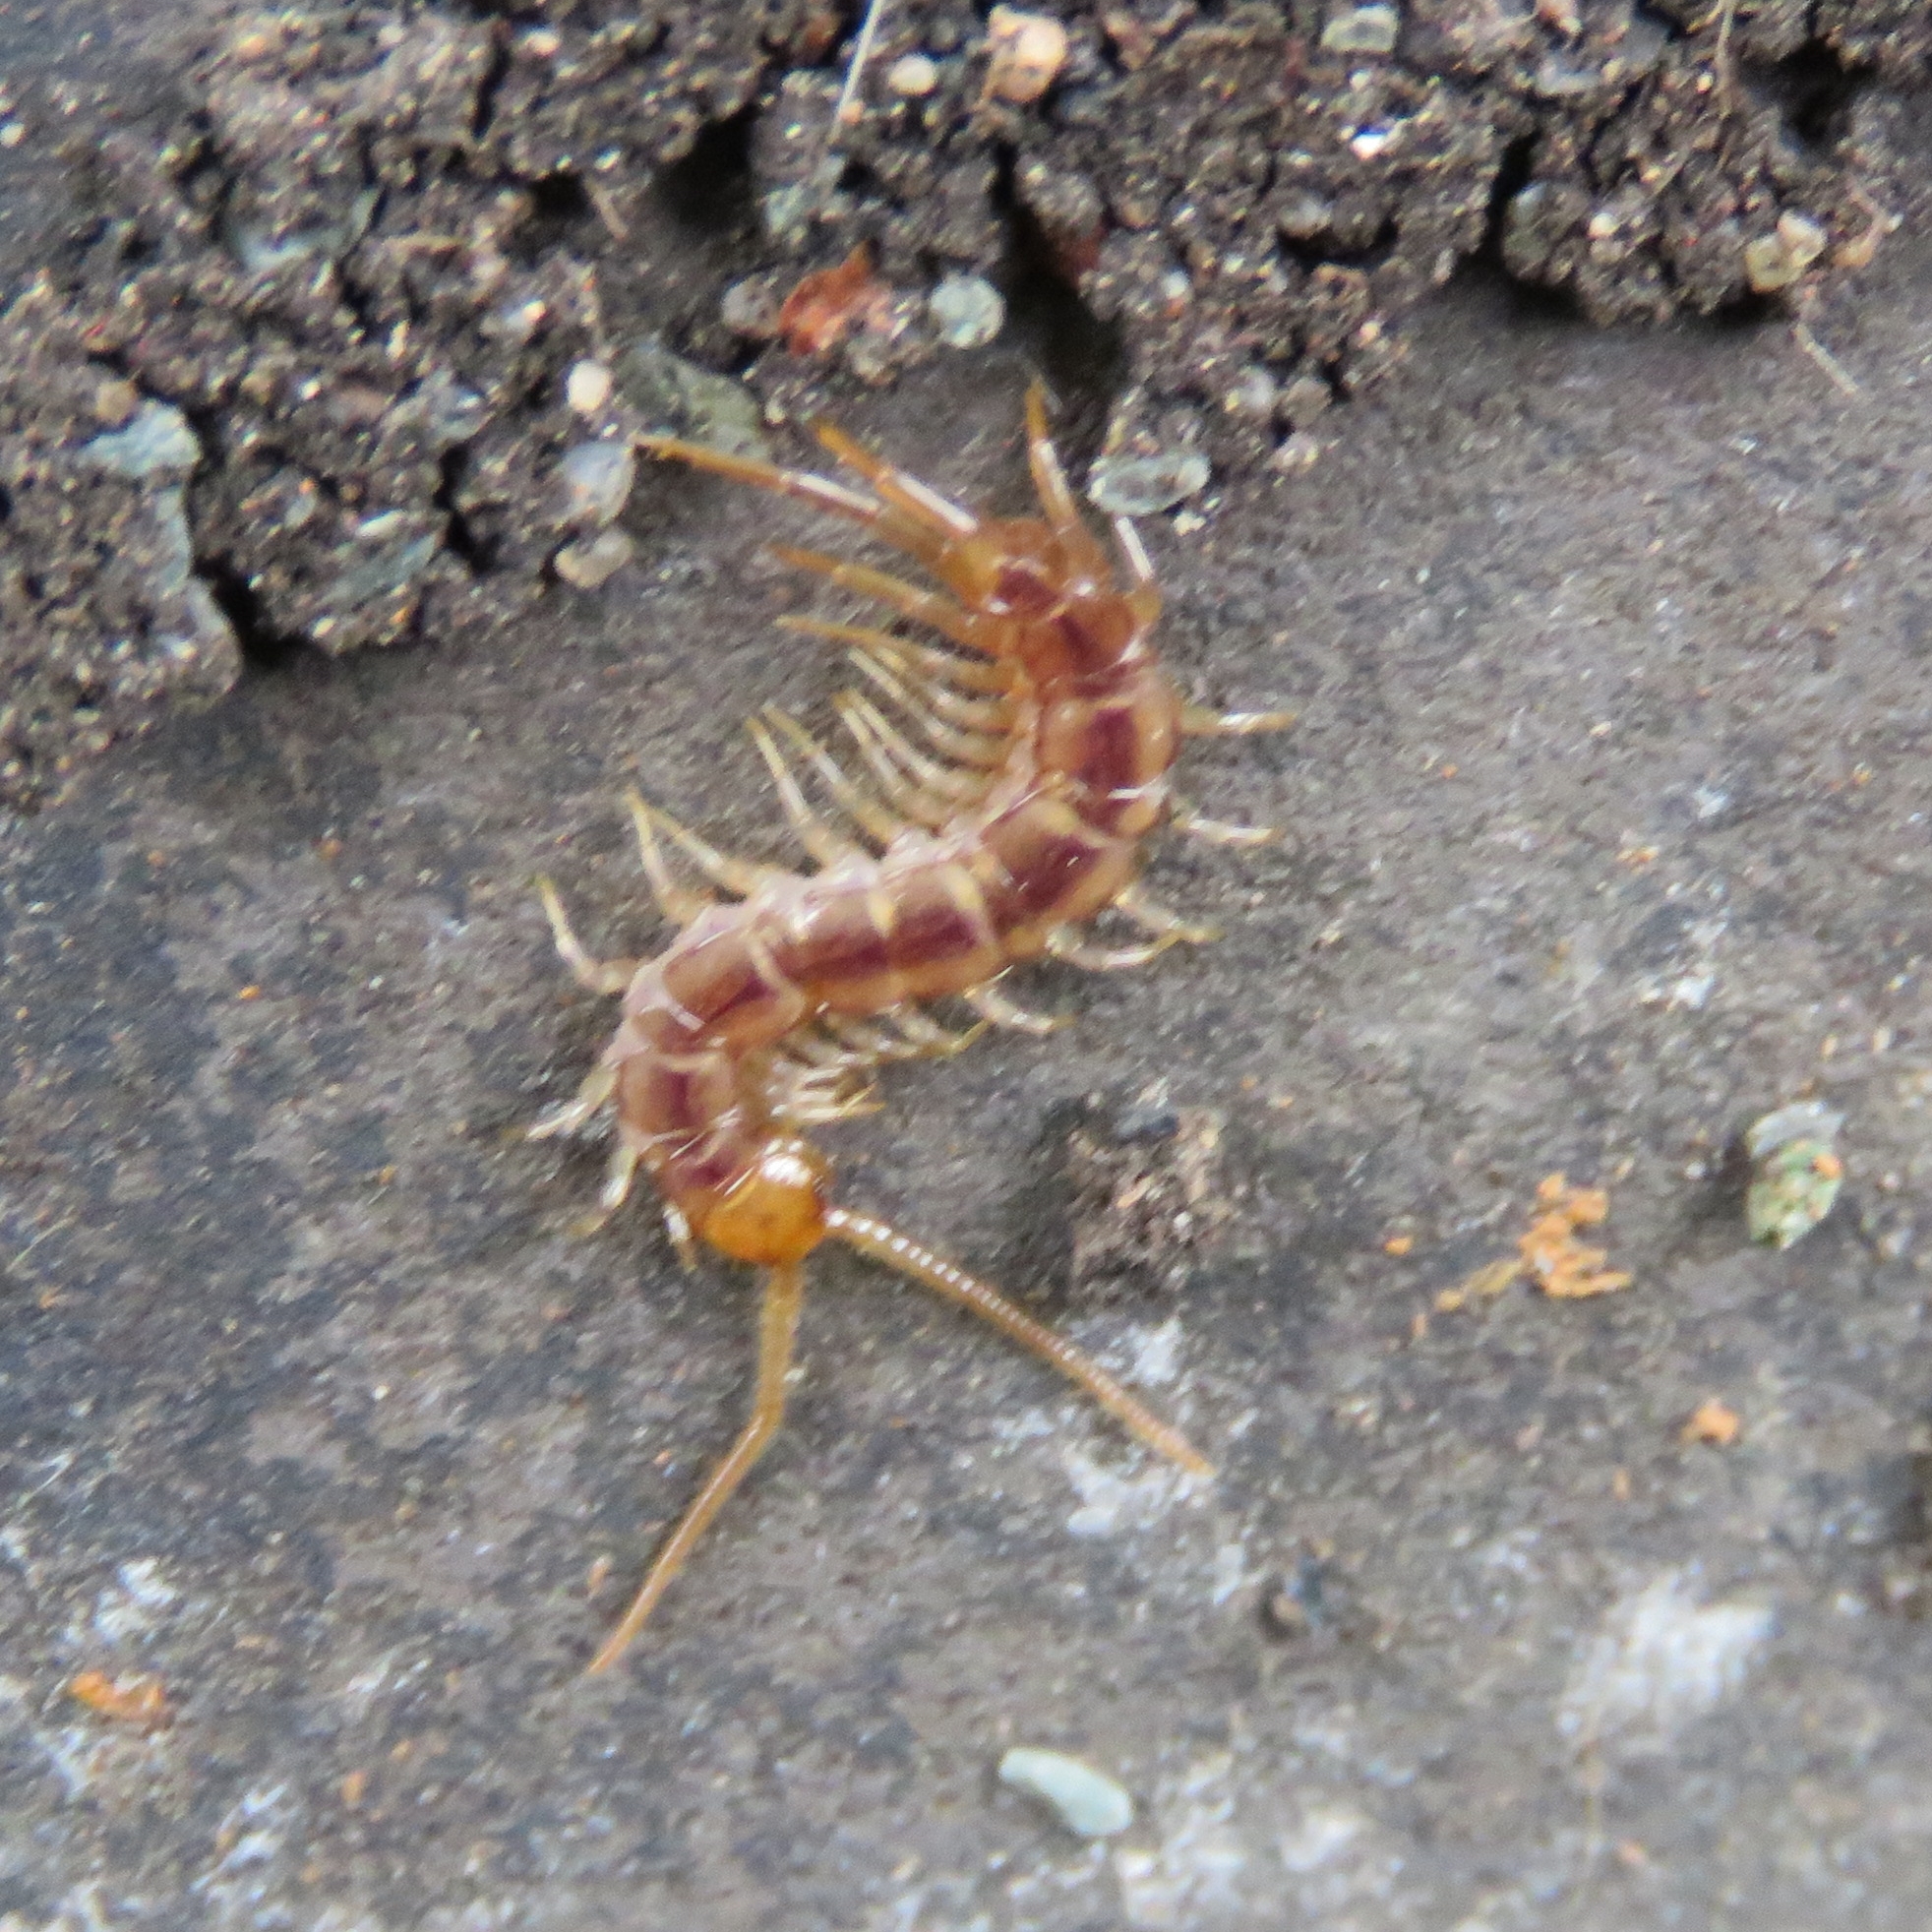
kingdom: Animalia
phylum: Arthropoda
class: Chilopoda
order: Lithobiomorpha
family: Lithobiidae
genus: Lithobius
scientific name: Lithobius melanops
